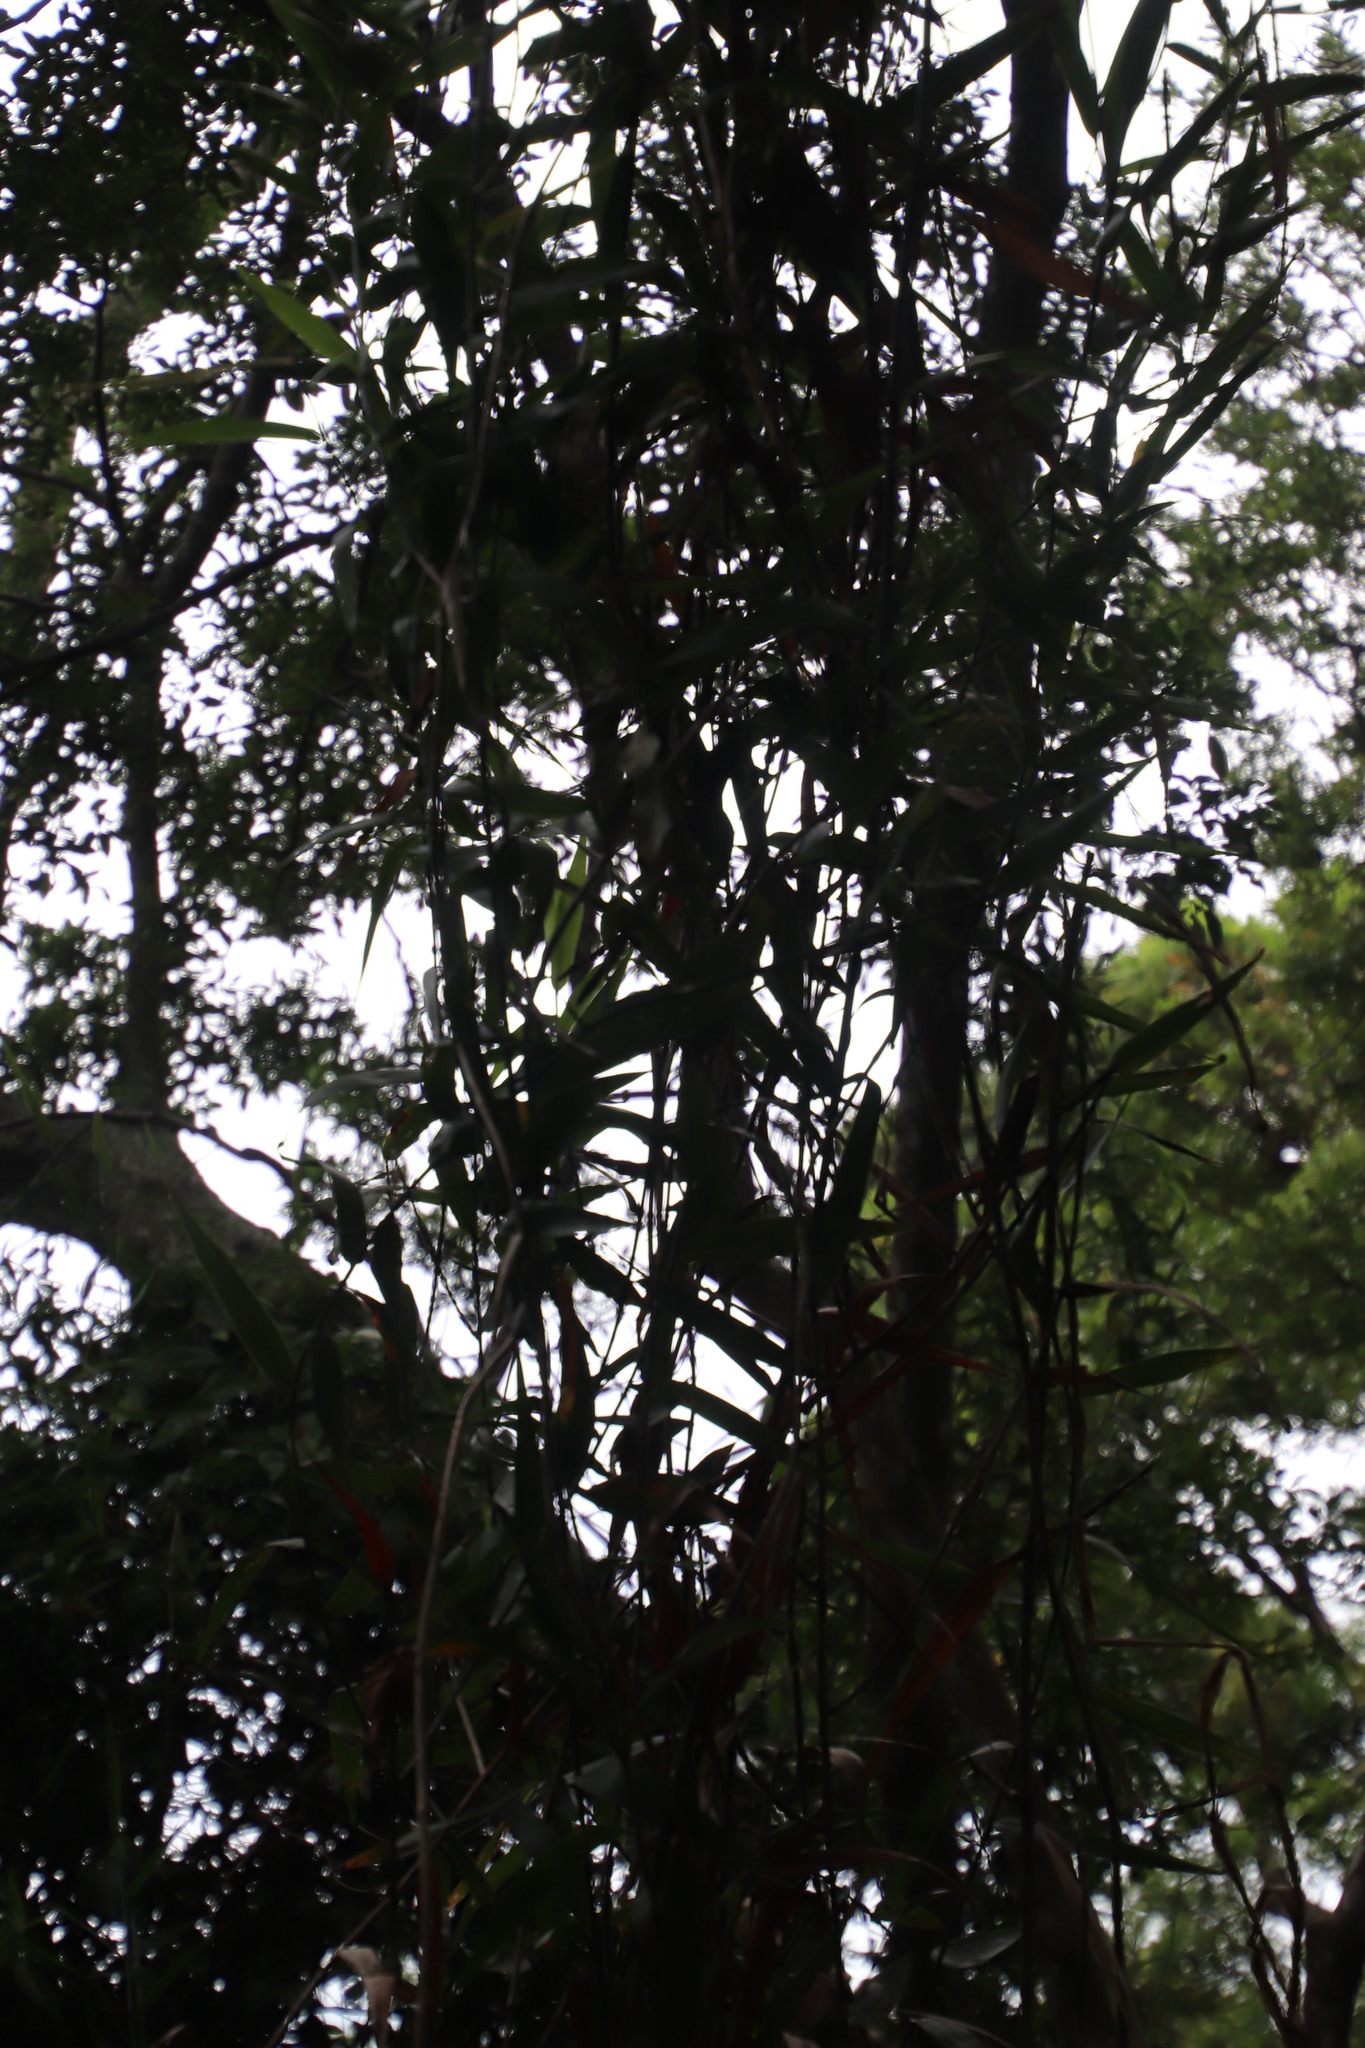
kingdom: Plantae
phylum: Tracheophyta
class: Liliopsida
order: Poales
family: Flagellariaceae
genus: Flagellaria
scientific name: Flagellaria guineensis
